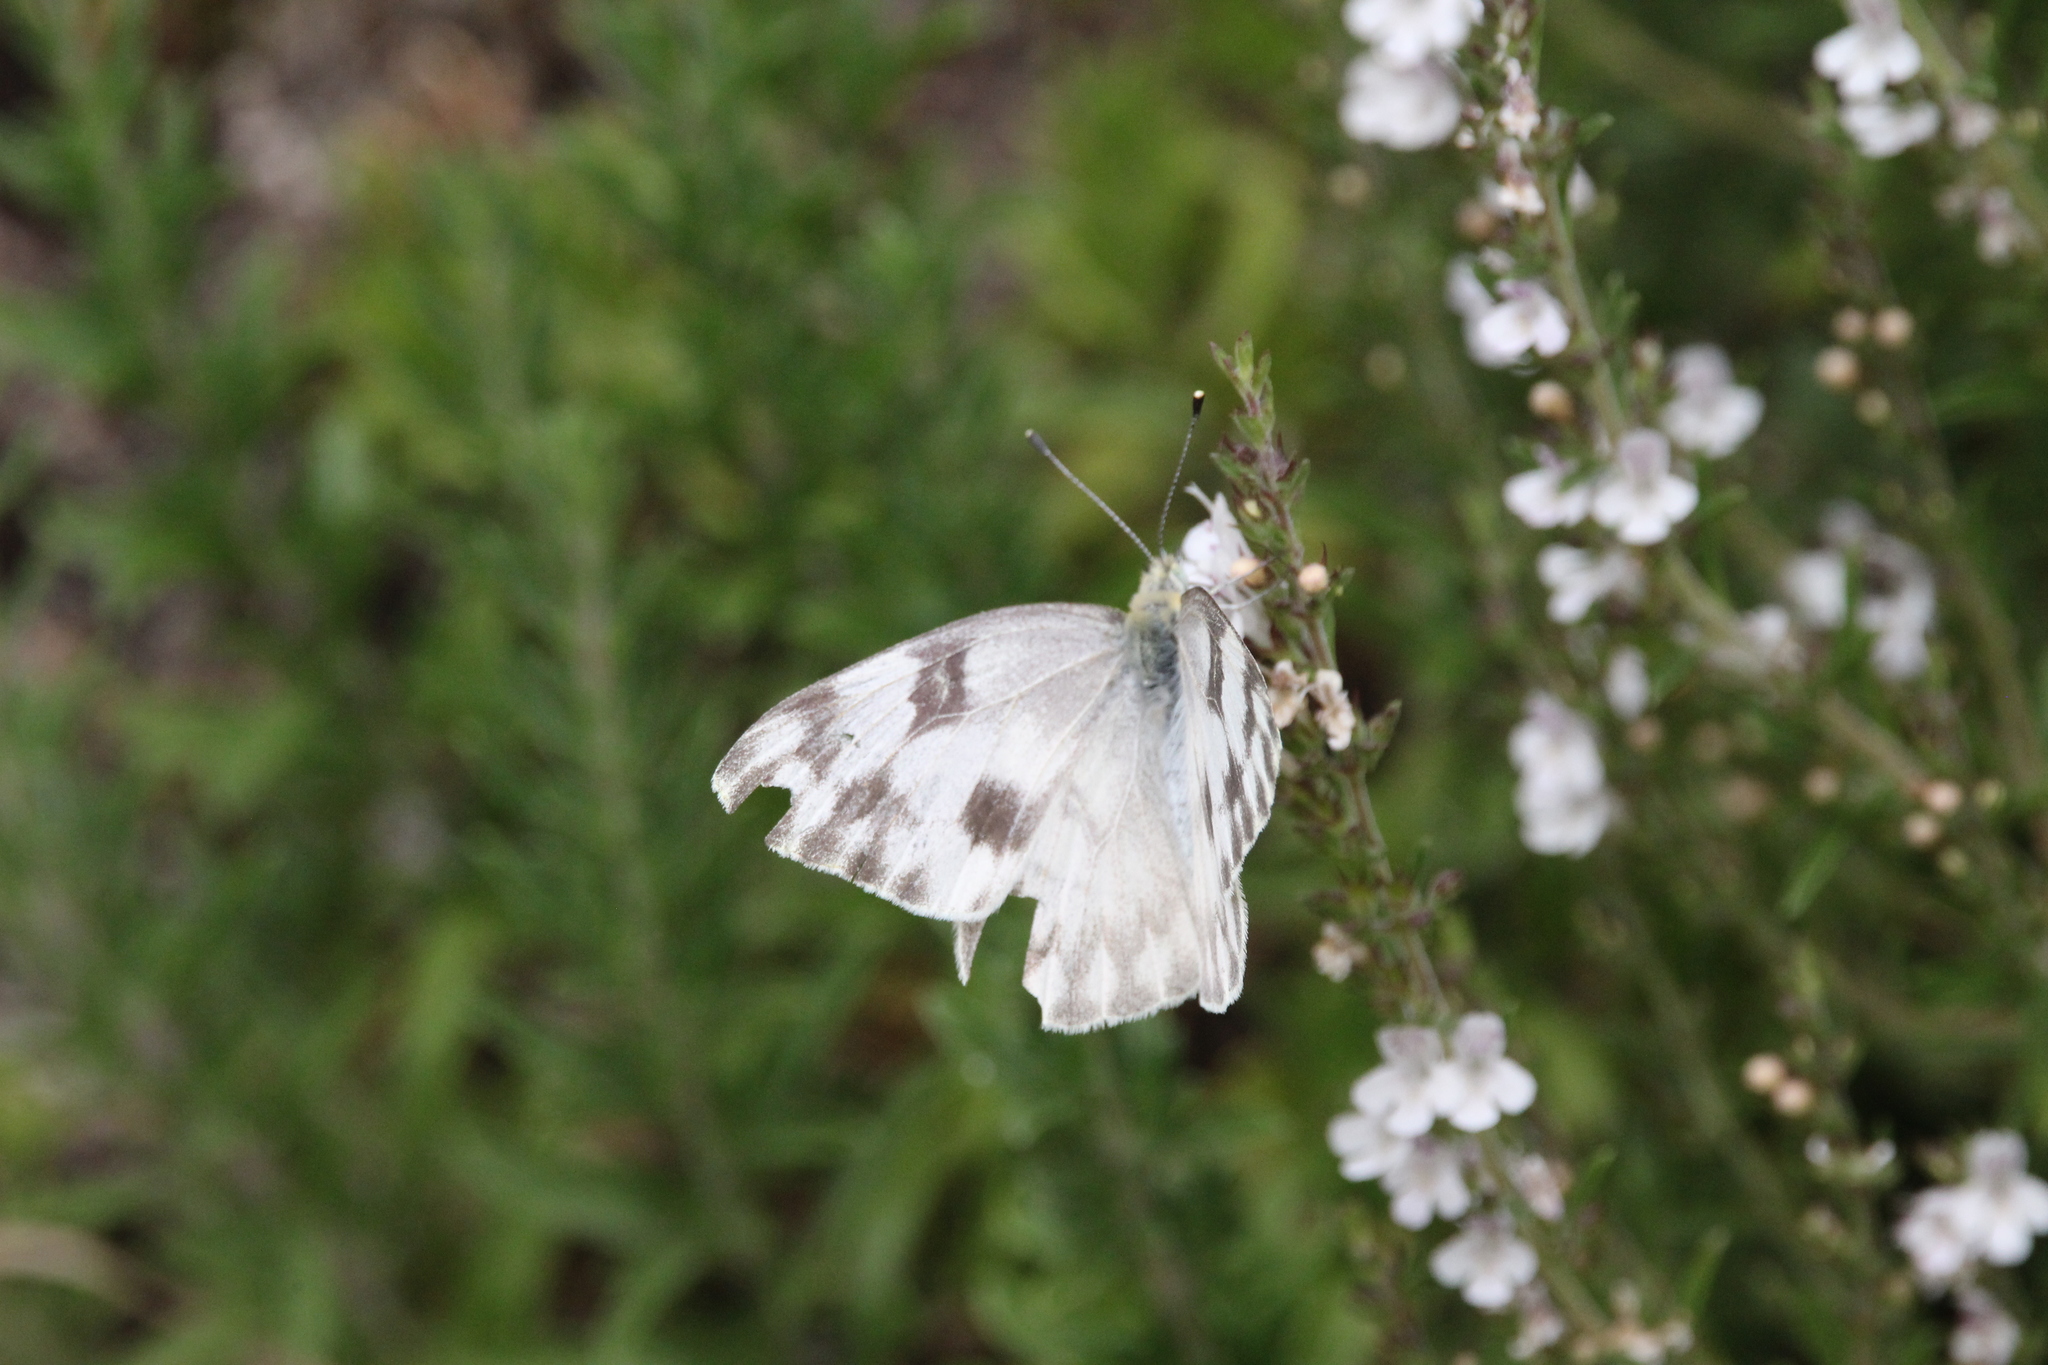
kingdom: Animalia
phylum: Arthropoda
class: Insecta
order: Lepidoptera
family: Pieridae
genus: Pontia
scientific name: Pontia protodice
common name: Checkered white
